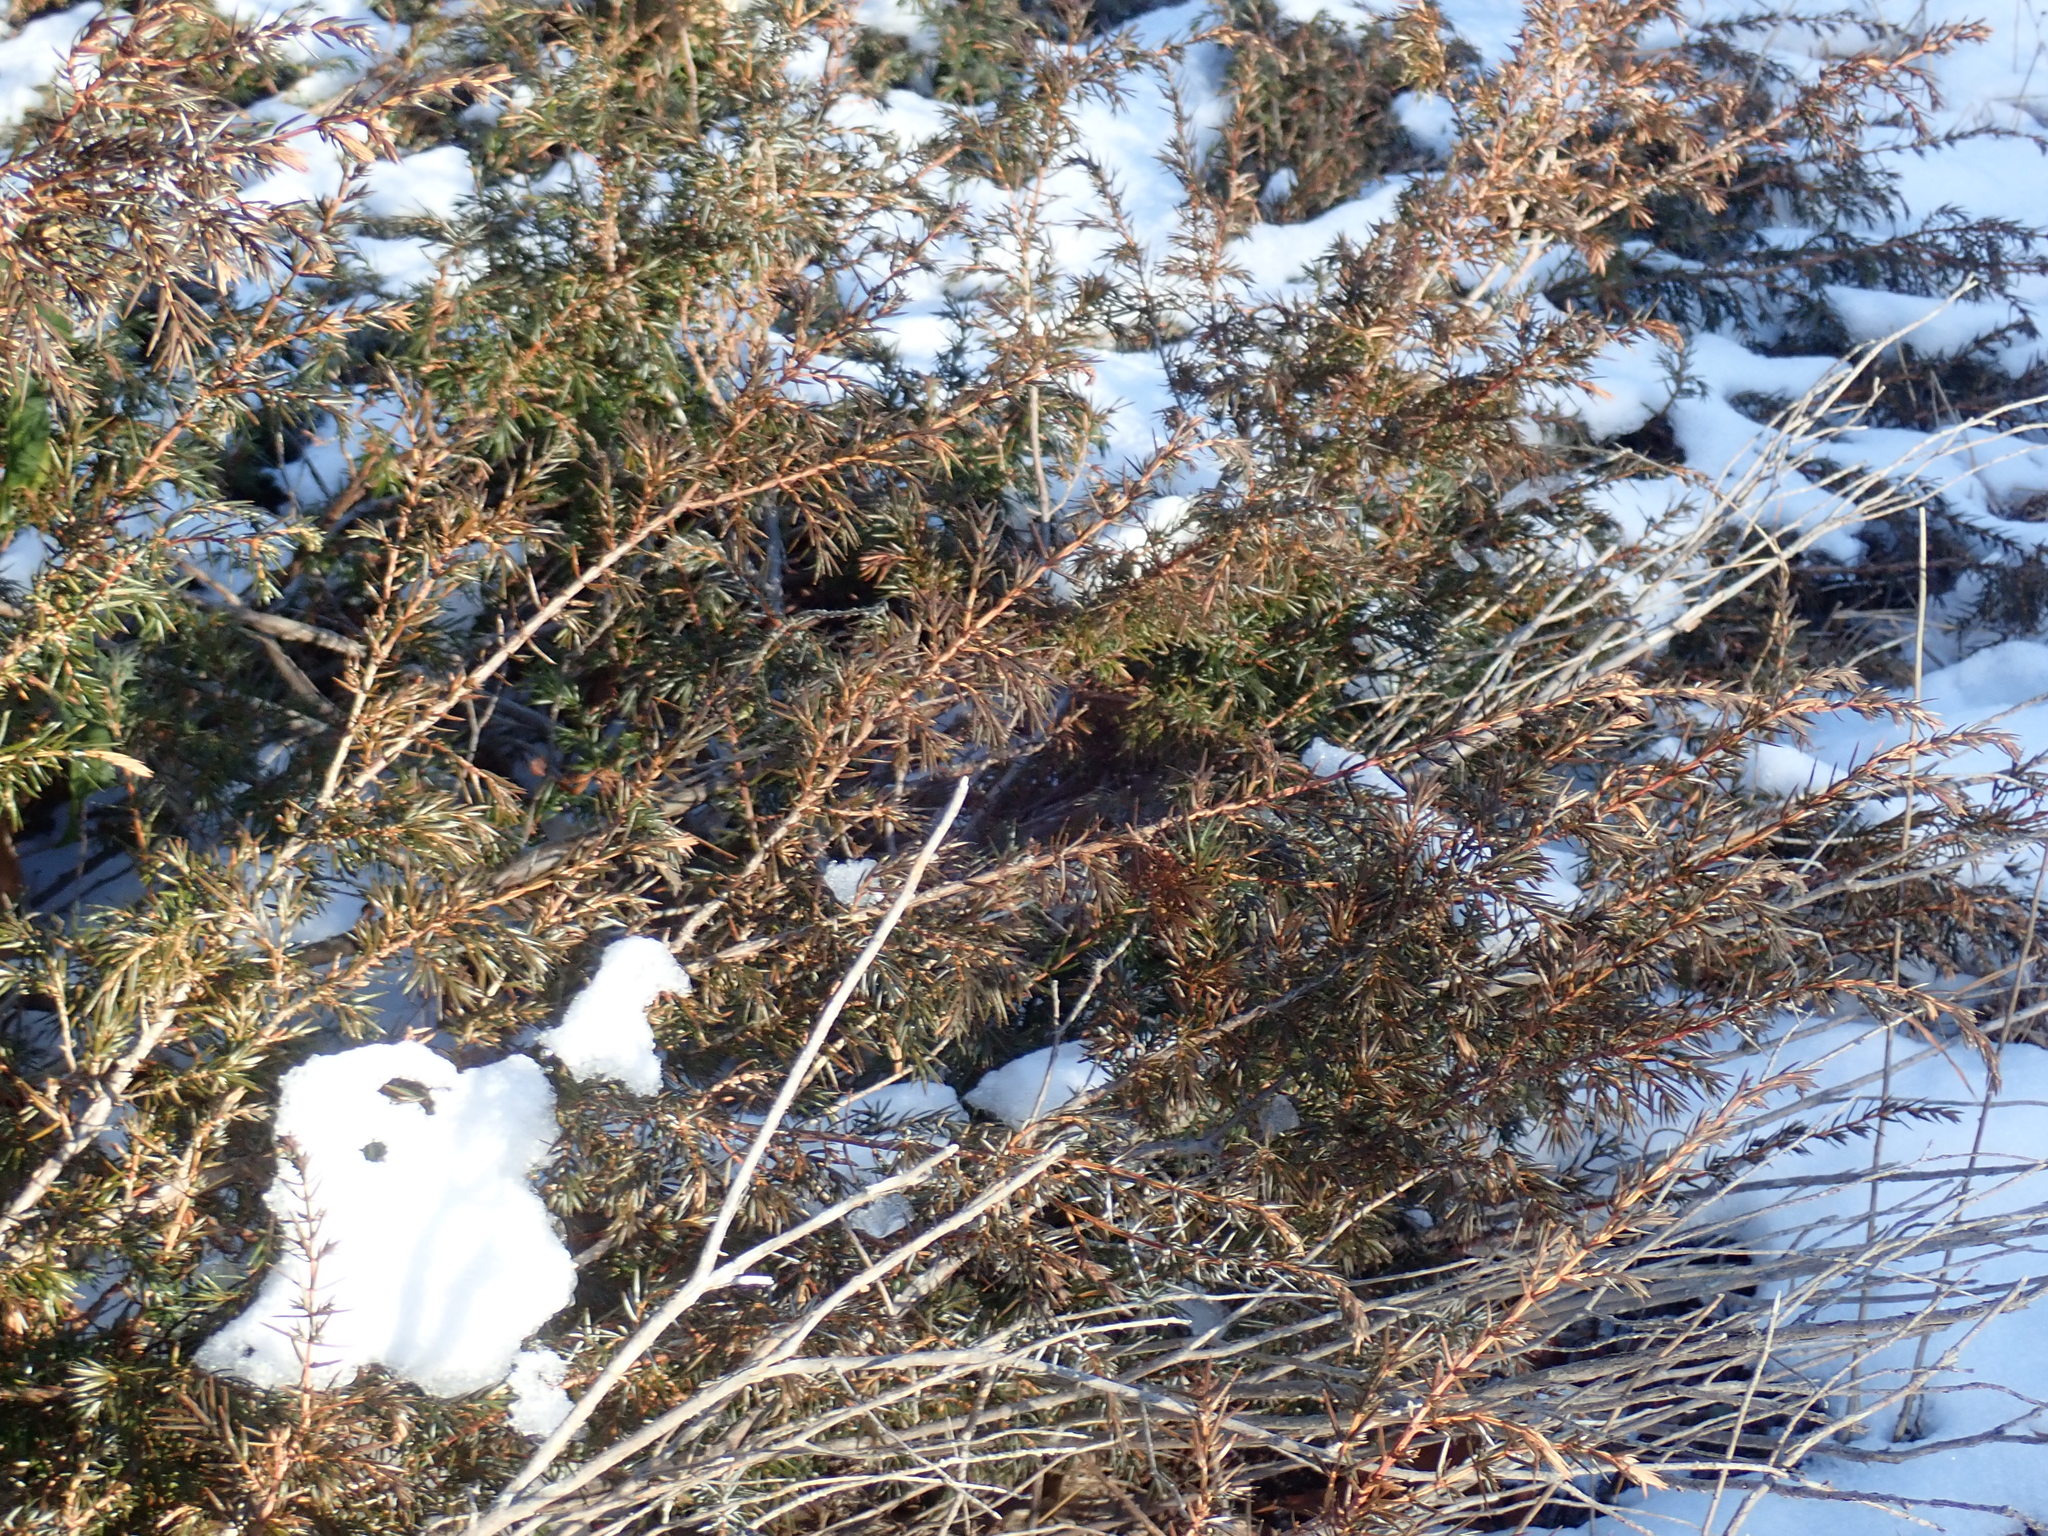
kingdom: Plantae
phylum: Tracheophyta
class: Pinopsida
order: Pinales
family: Cupressaceae
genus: Juniperus
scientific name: Juniperus communis
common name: Common juniper
